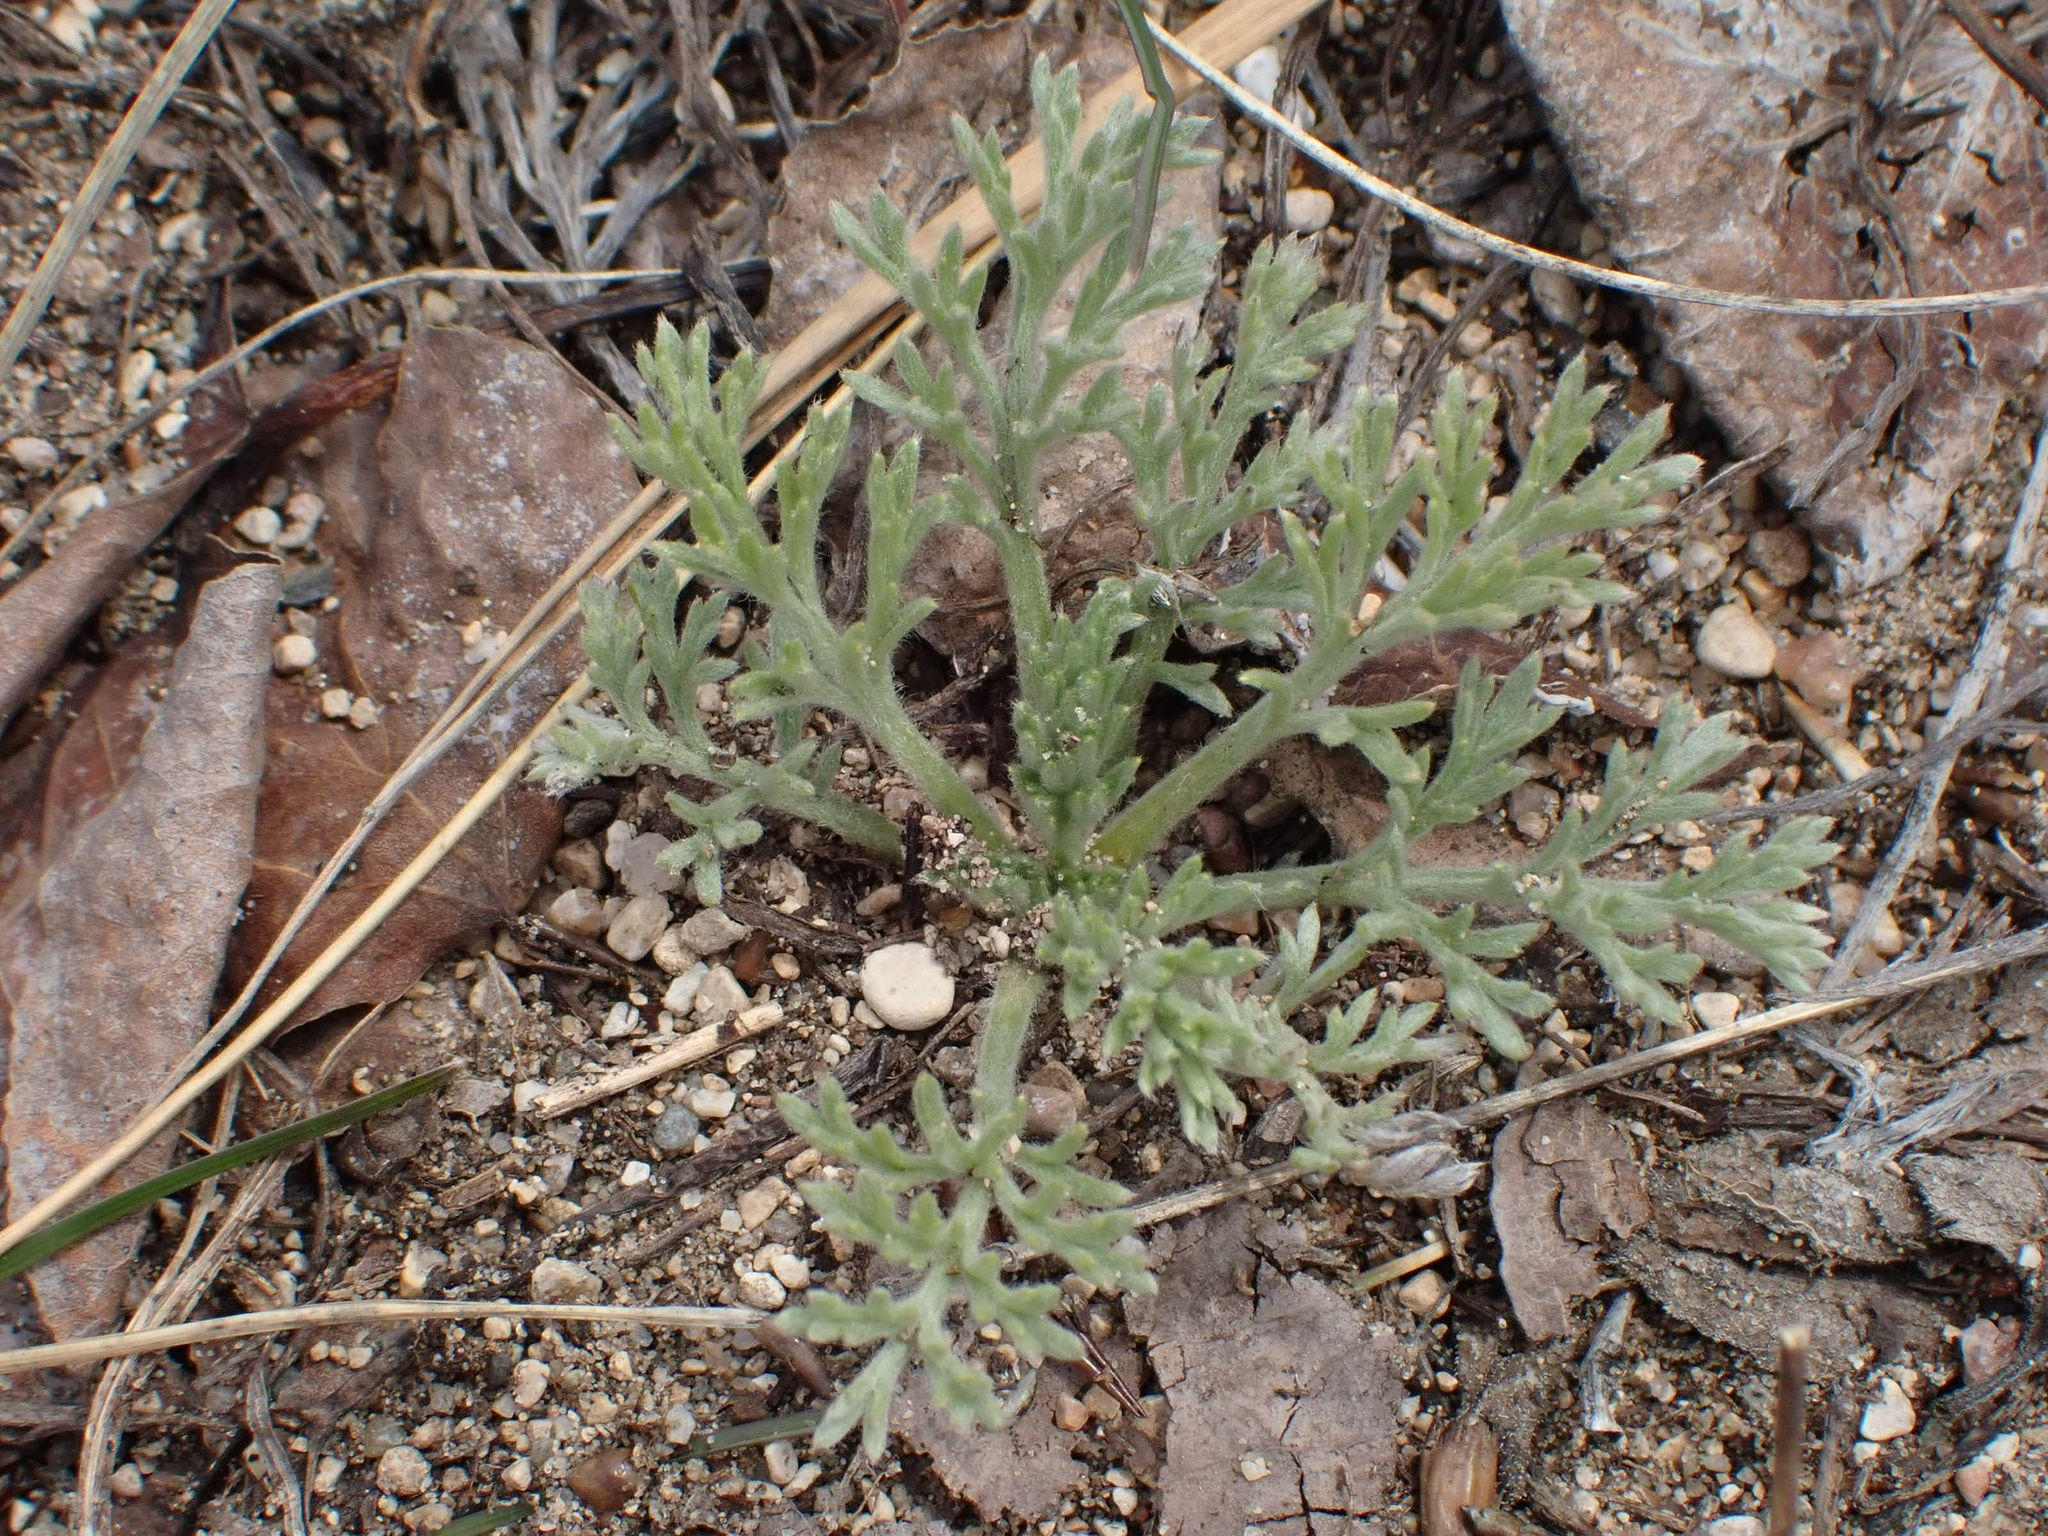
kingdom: Plantae
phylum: Tracheophyta
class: Magnoliopsida
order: Asterales
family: Asteraceae
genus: Artemisia
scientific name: Artemisia campestris
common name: Field wormwood
